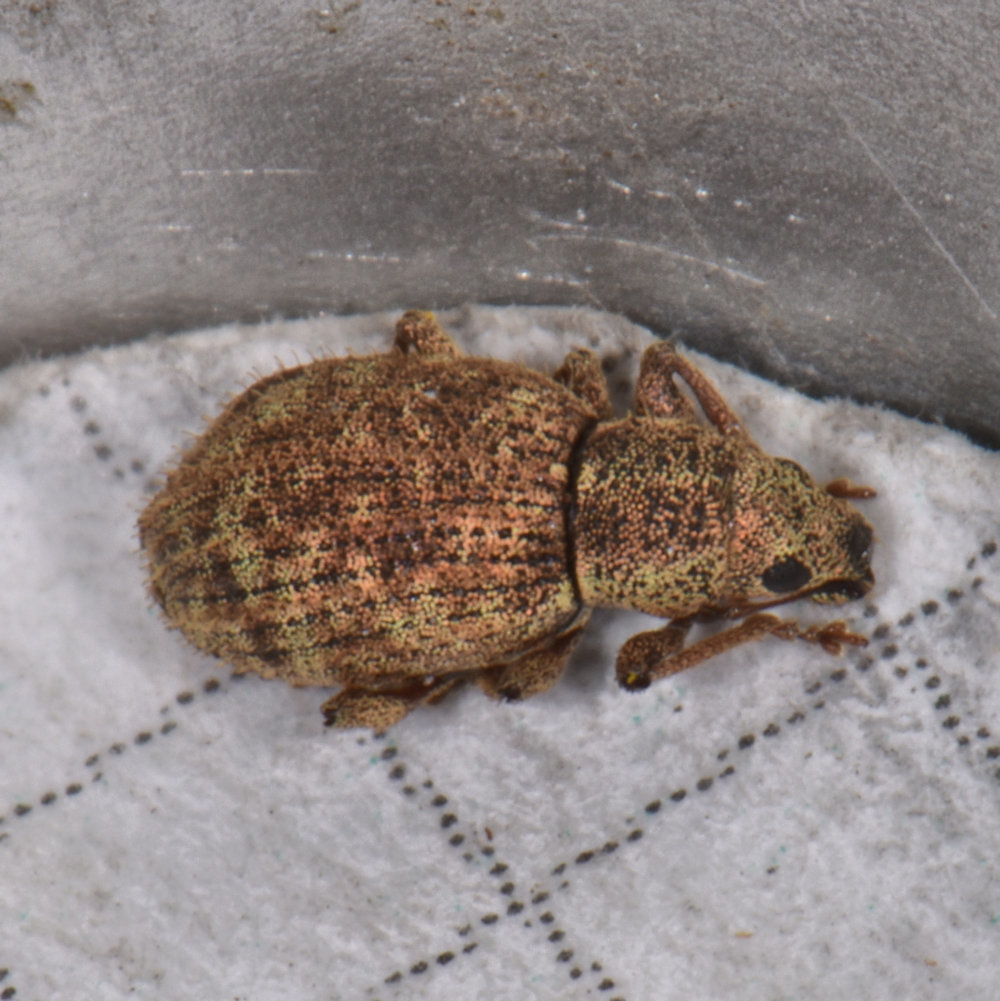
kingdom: Animalia
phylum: Arthropoda
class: Insecta
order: Coleoptera
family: Curculionidae
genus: Sciaphilus
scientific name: Sciaphilus asperatus
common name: Weevil
